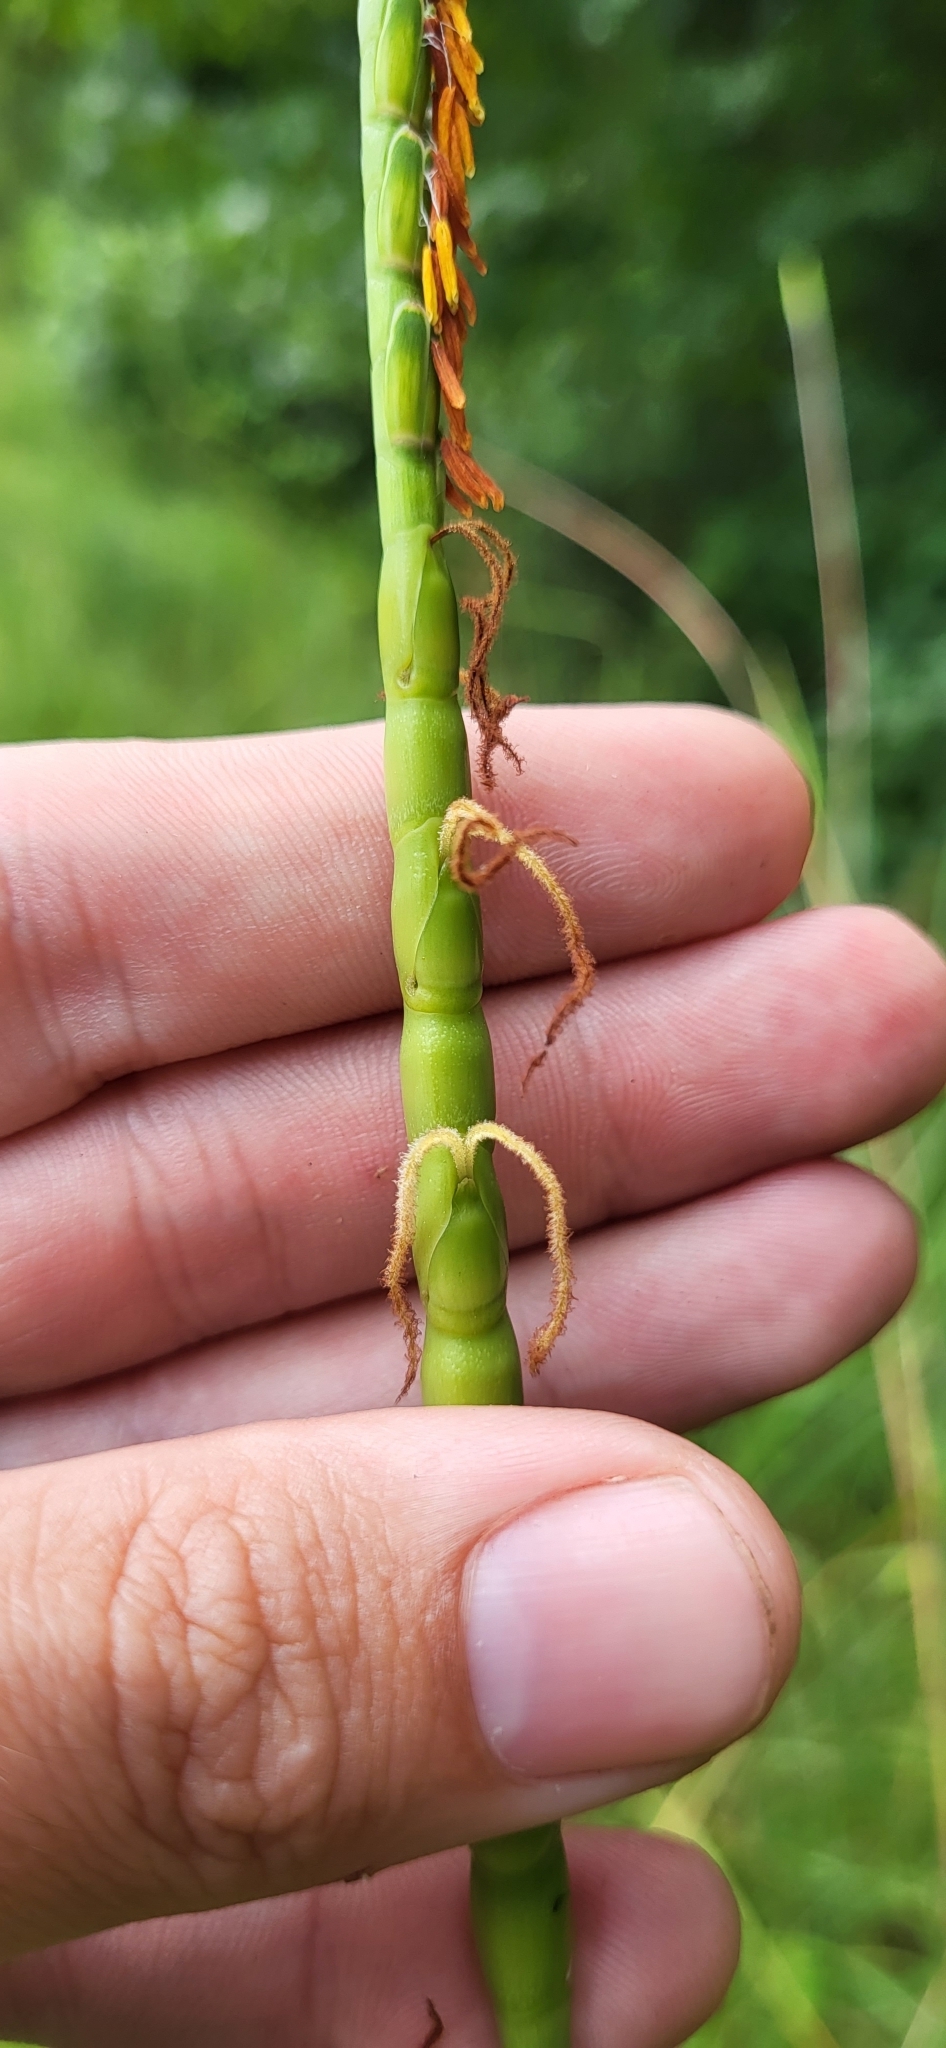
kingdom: Plantae
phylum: Tracheophyta
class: Liliopsida
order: Poales
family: Poaceae
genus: Tripsacum
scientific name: Tripsacum dactyloides
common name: Buffalo-grass
